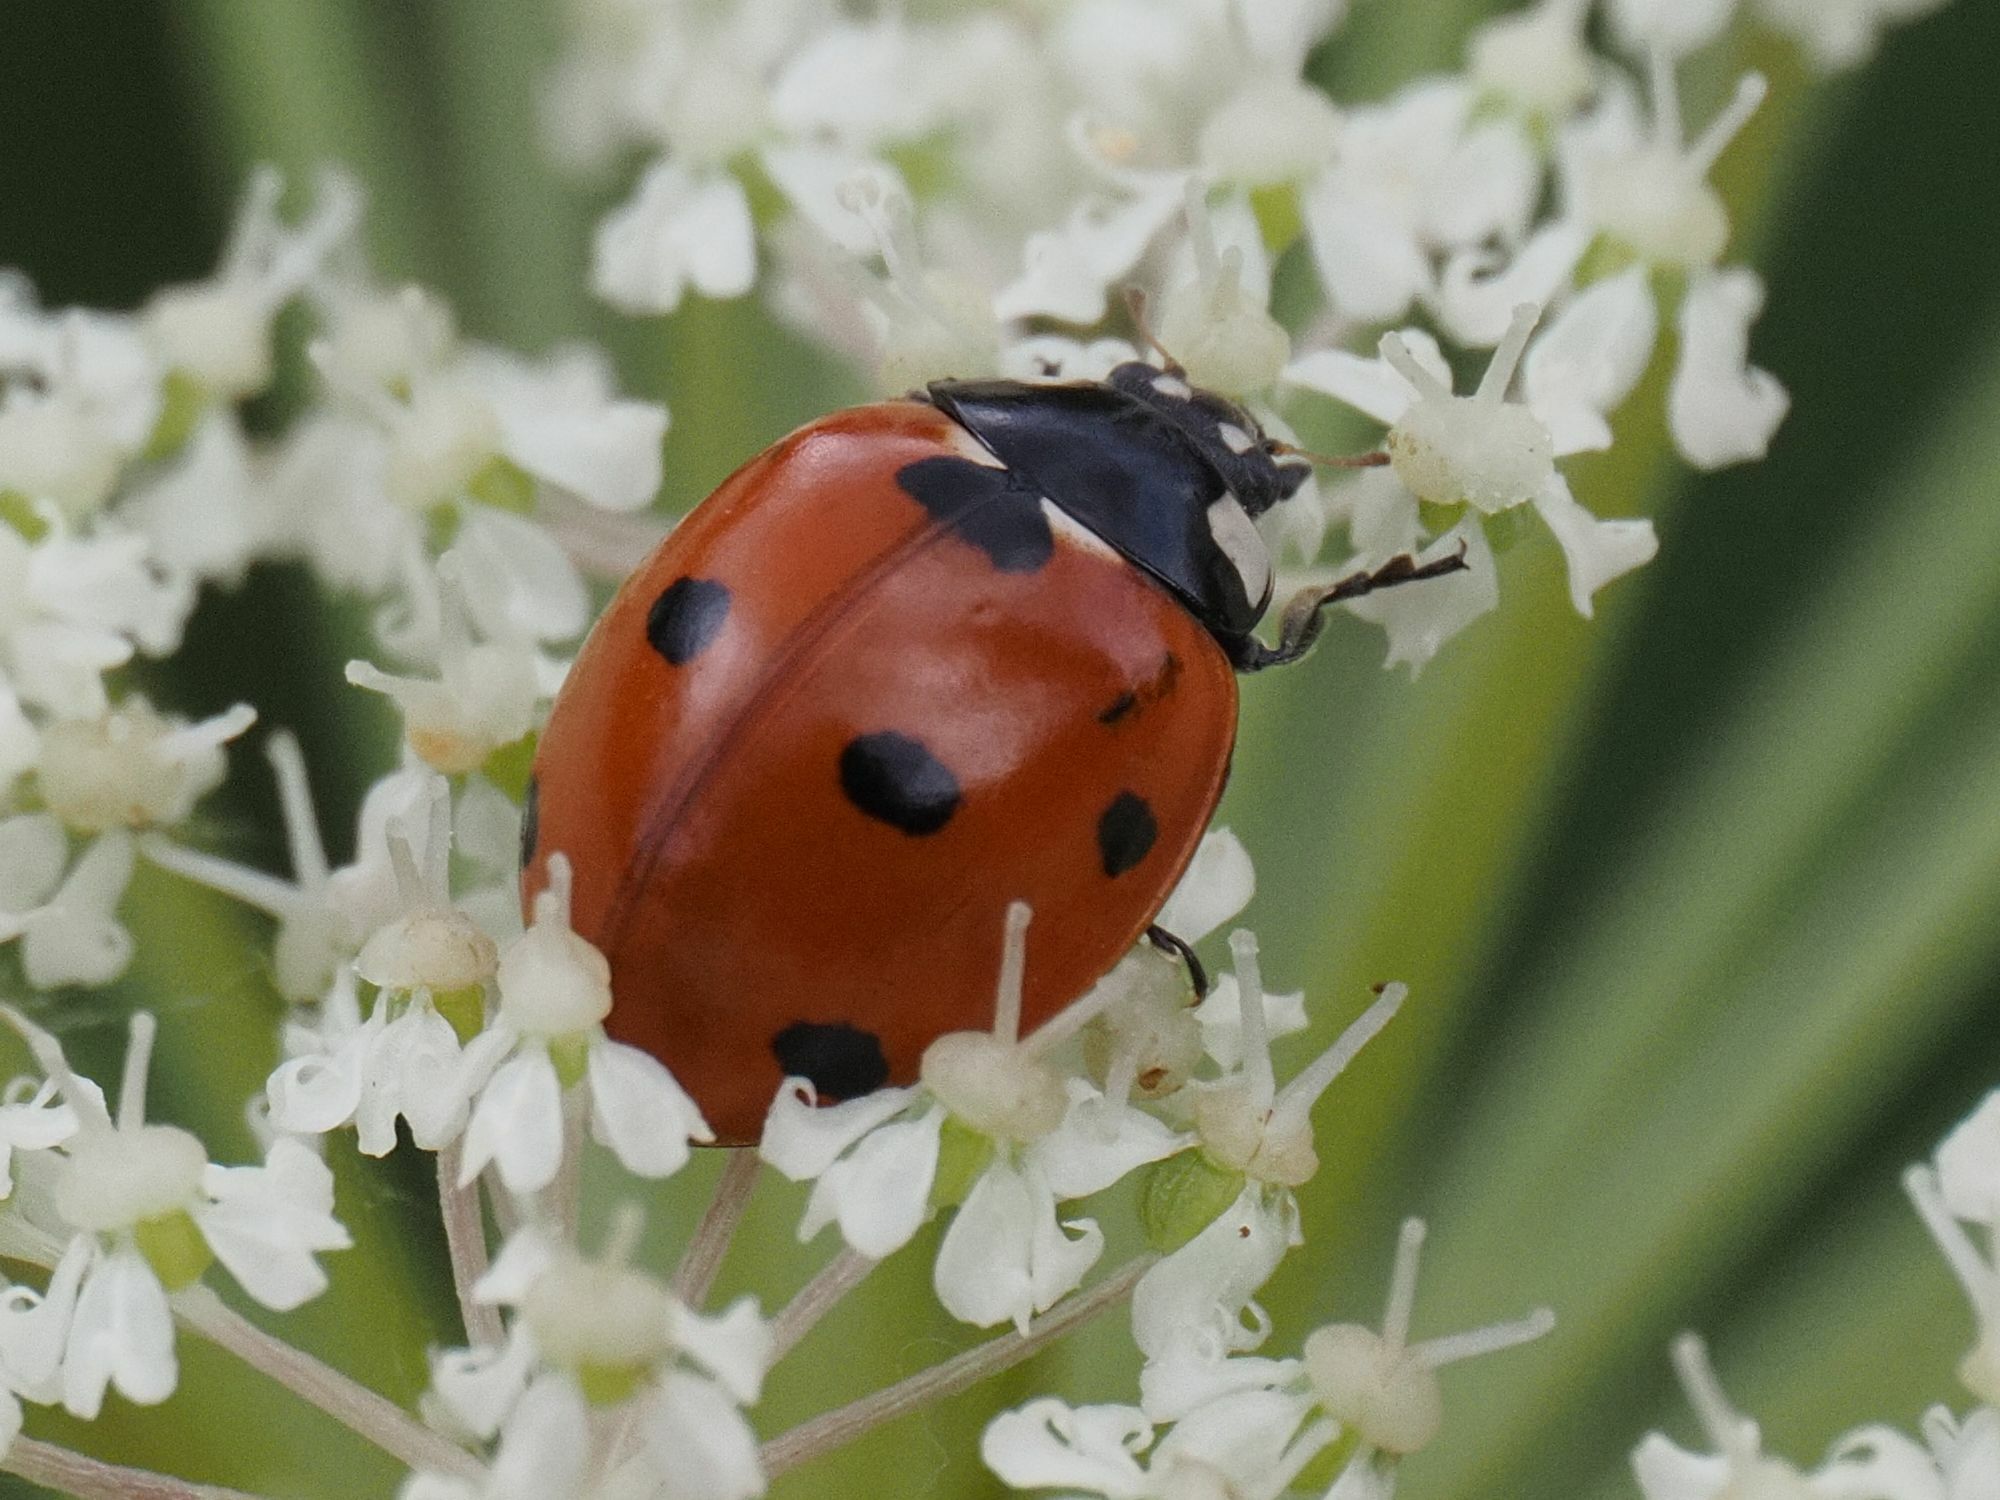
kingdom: Animalia
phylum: Arthropoda
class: Insecta
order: Coleoptera
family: Coccinellidae
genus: Coccinella
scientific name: Coccinella septempunctata
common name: Sevenspotted lady beetle
